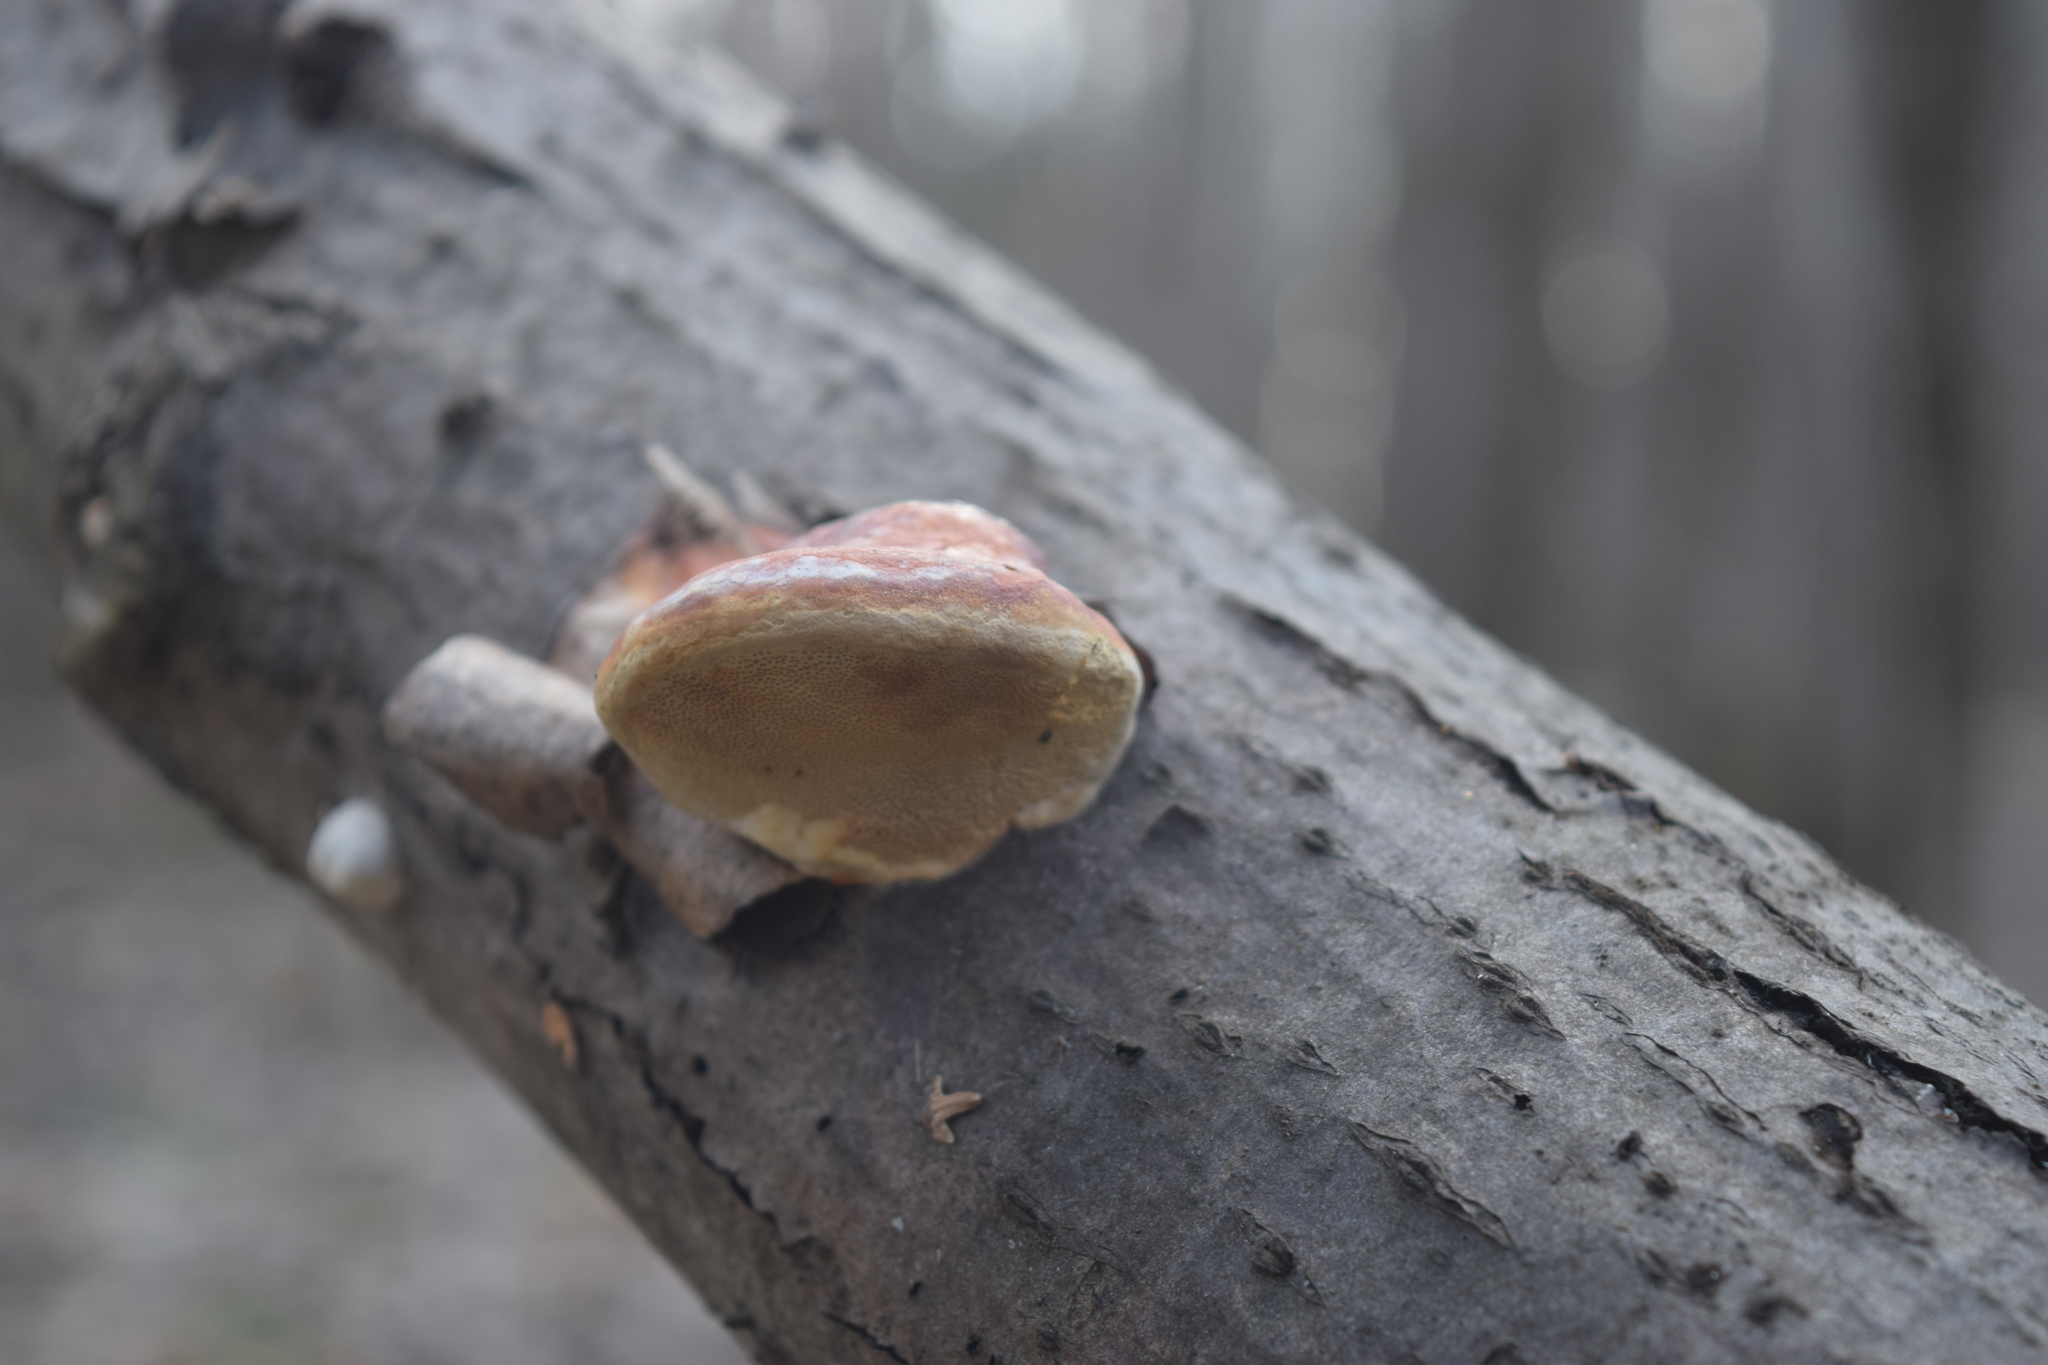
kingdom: Fungi
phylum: Basidiomycota
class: Agaricomycetes
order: Polyporales
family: Fomitopsidaceae
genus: Fomitopsis
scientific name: Fomitopsis pinicola
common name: Red-belted bracket
